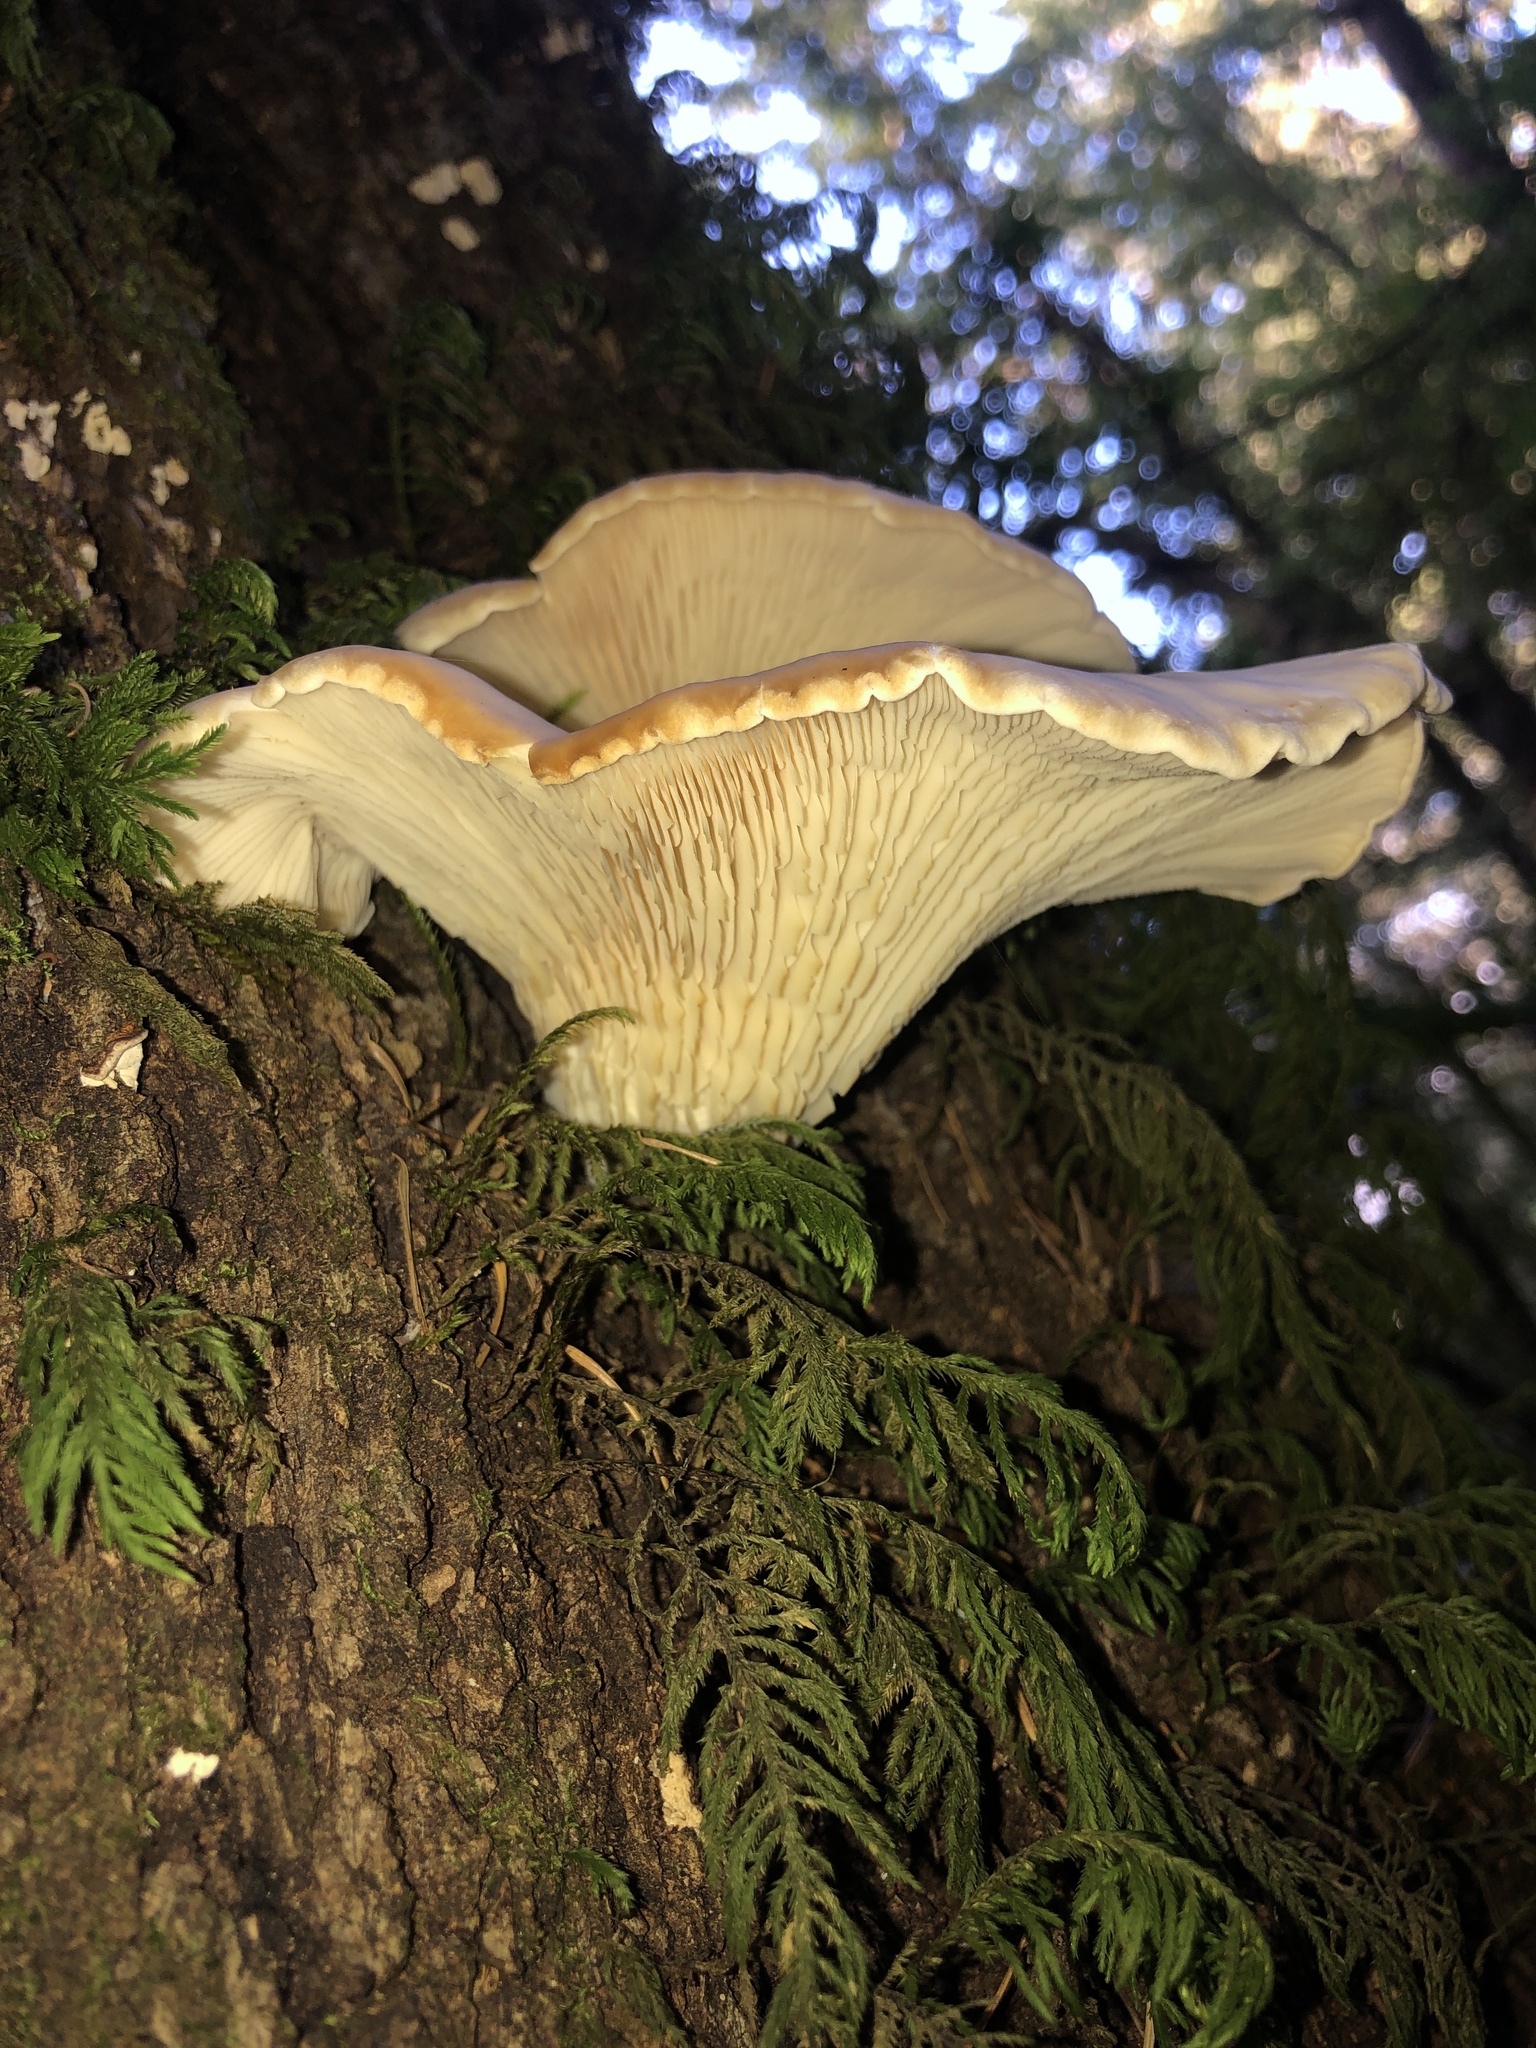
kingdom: Fungi
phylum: Basidiomycota
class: Agaricomycetes
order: Agaricales
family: Pleurotaceae
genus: Pleurotus
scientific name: Pleurotus ostreatus
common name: Oyster mushroom
